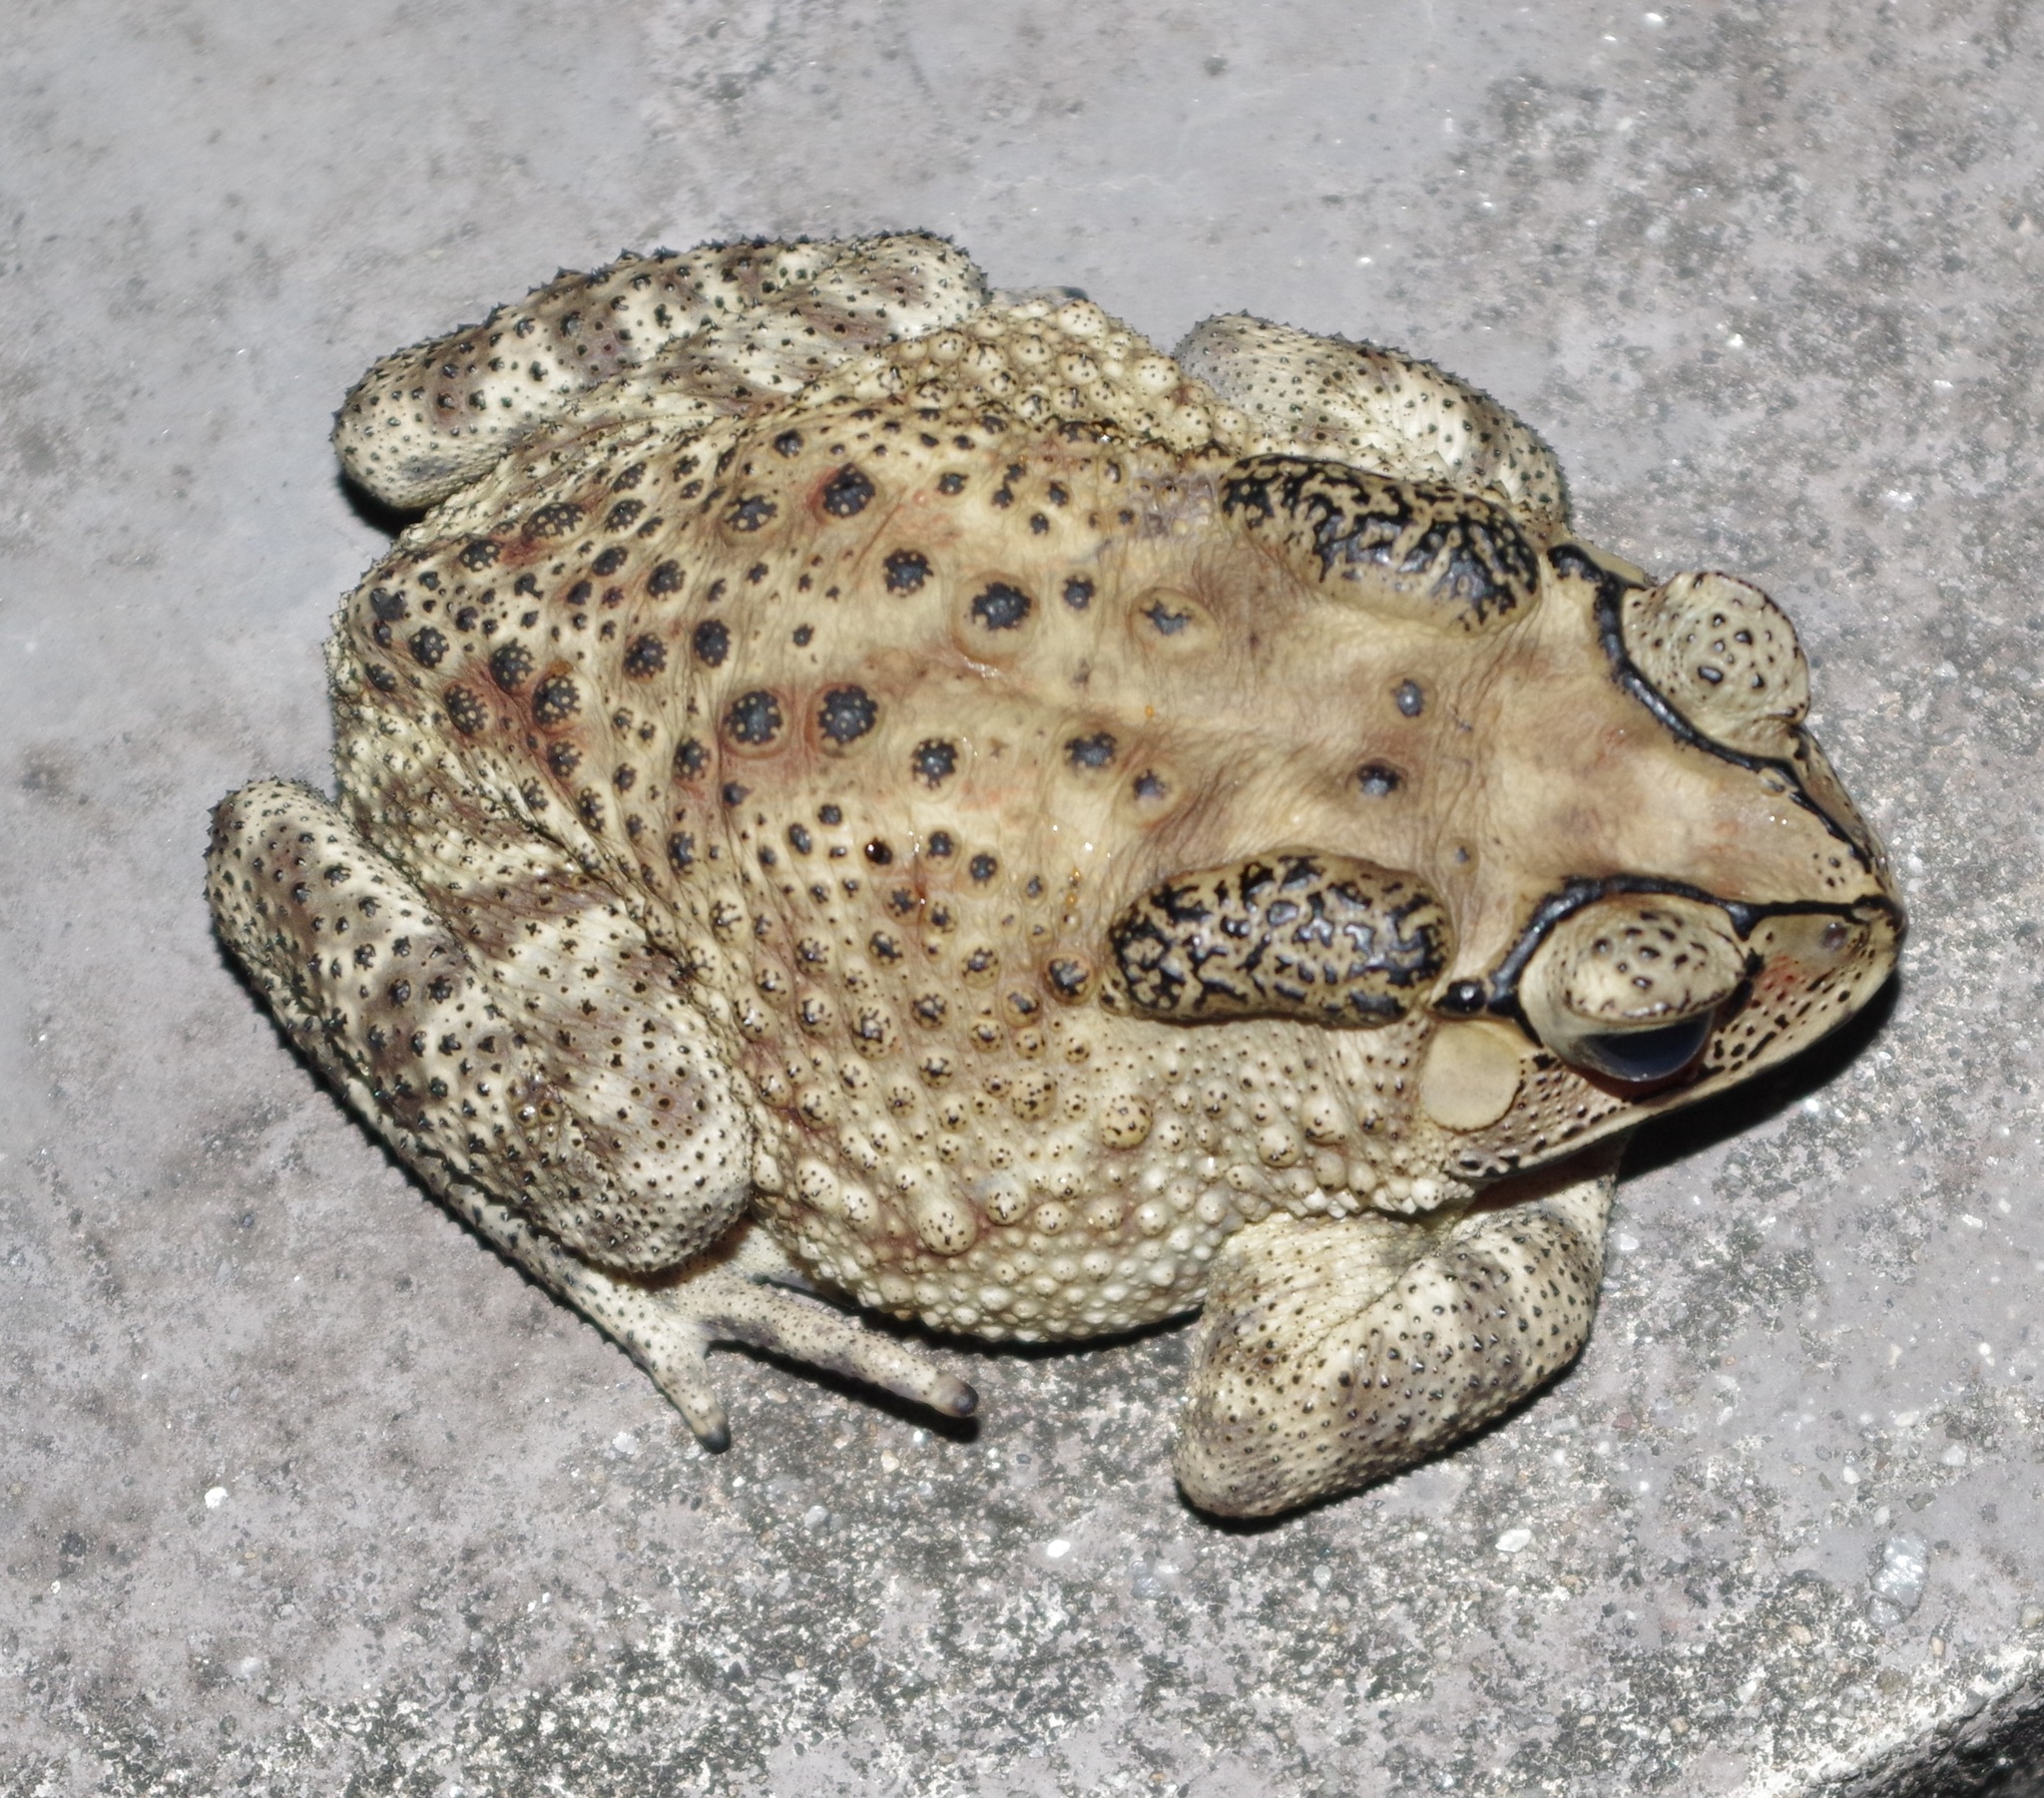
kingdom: Animalia
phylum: Chordata
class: Amphibia
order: Anura
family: Bufonidae
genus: Duttaphrynus
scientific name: Duttaphrynus melanostictus
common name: Common sunda toad
